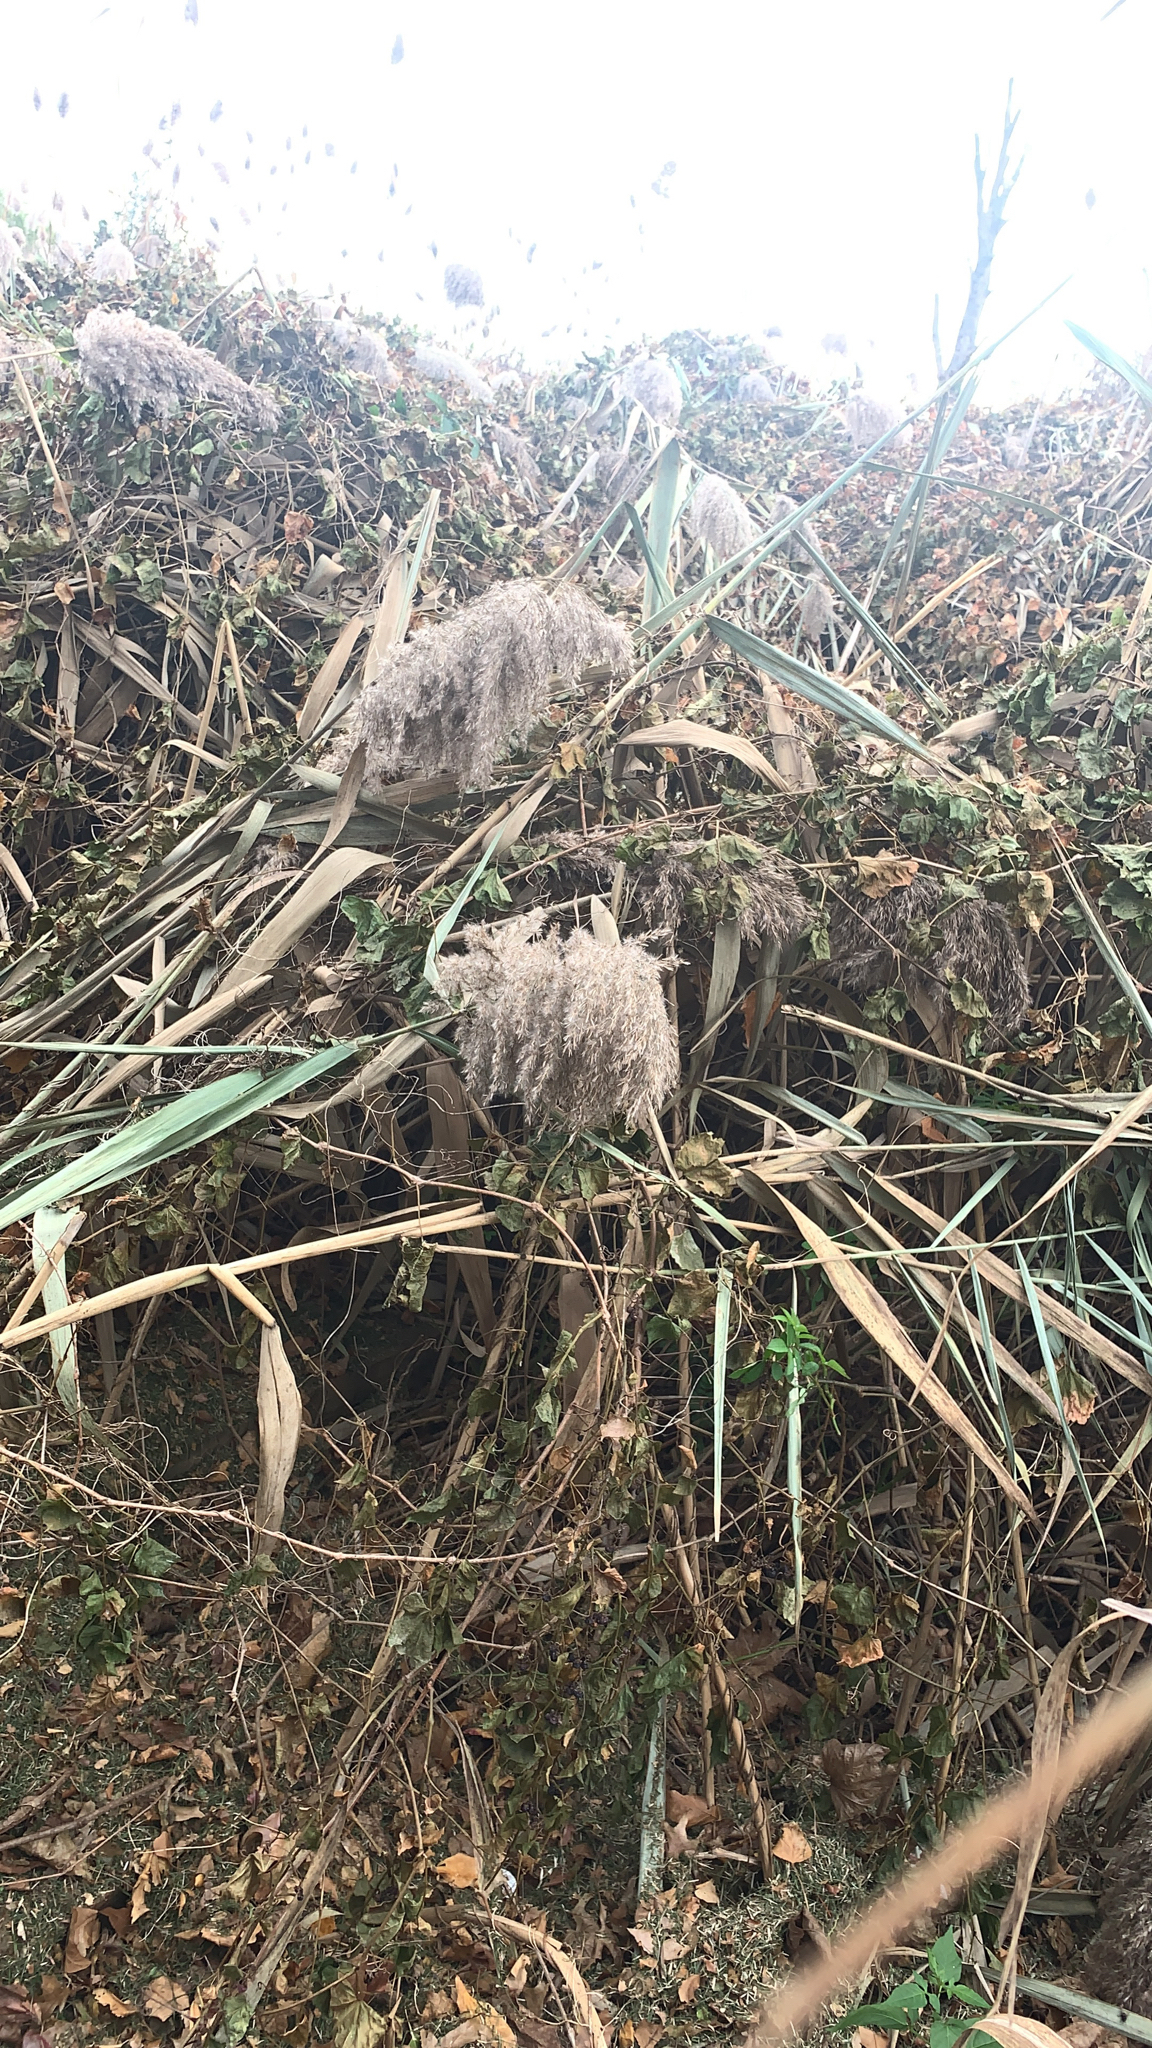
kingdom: Plantae
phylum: Tracheophyta
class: Liliopsida
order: Poales
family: Poaceae
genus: Phragmites
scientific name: Phragmites australis
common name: Common reed
